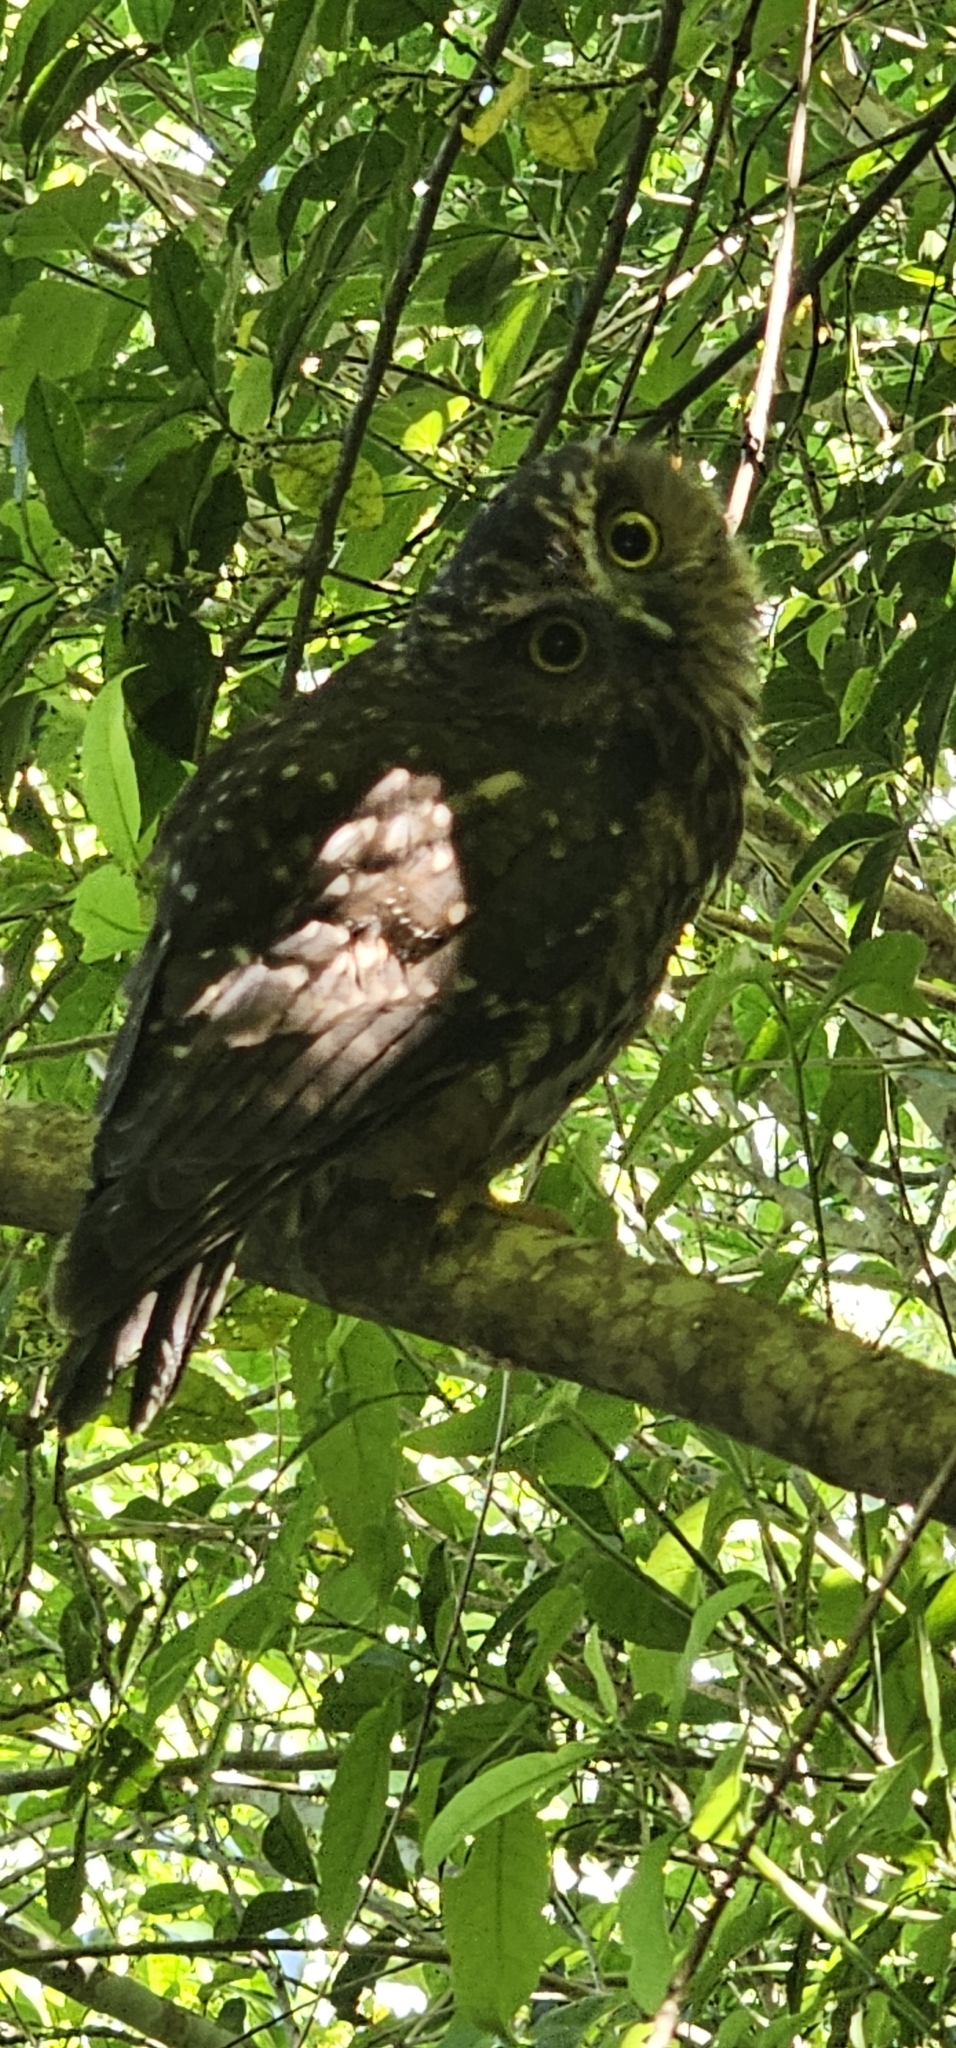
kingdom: Animalia
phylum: Chordata
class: Aves
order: Strigiformes
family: Strigidae
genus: Ninox
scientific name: Ninox novaeseelandiae
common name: Morepork
